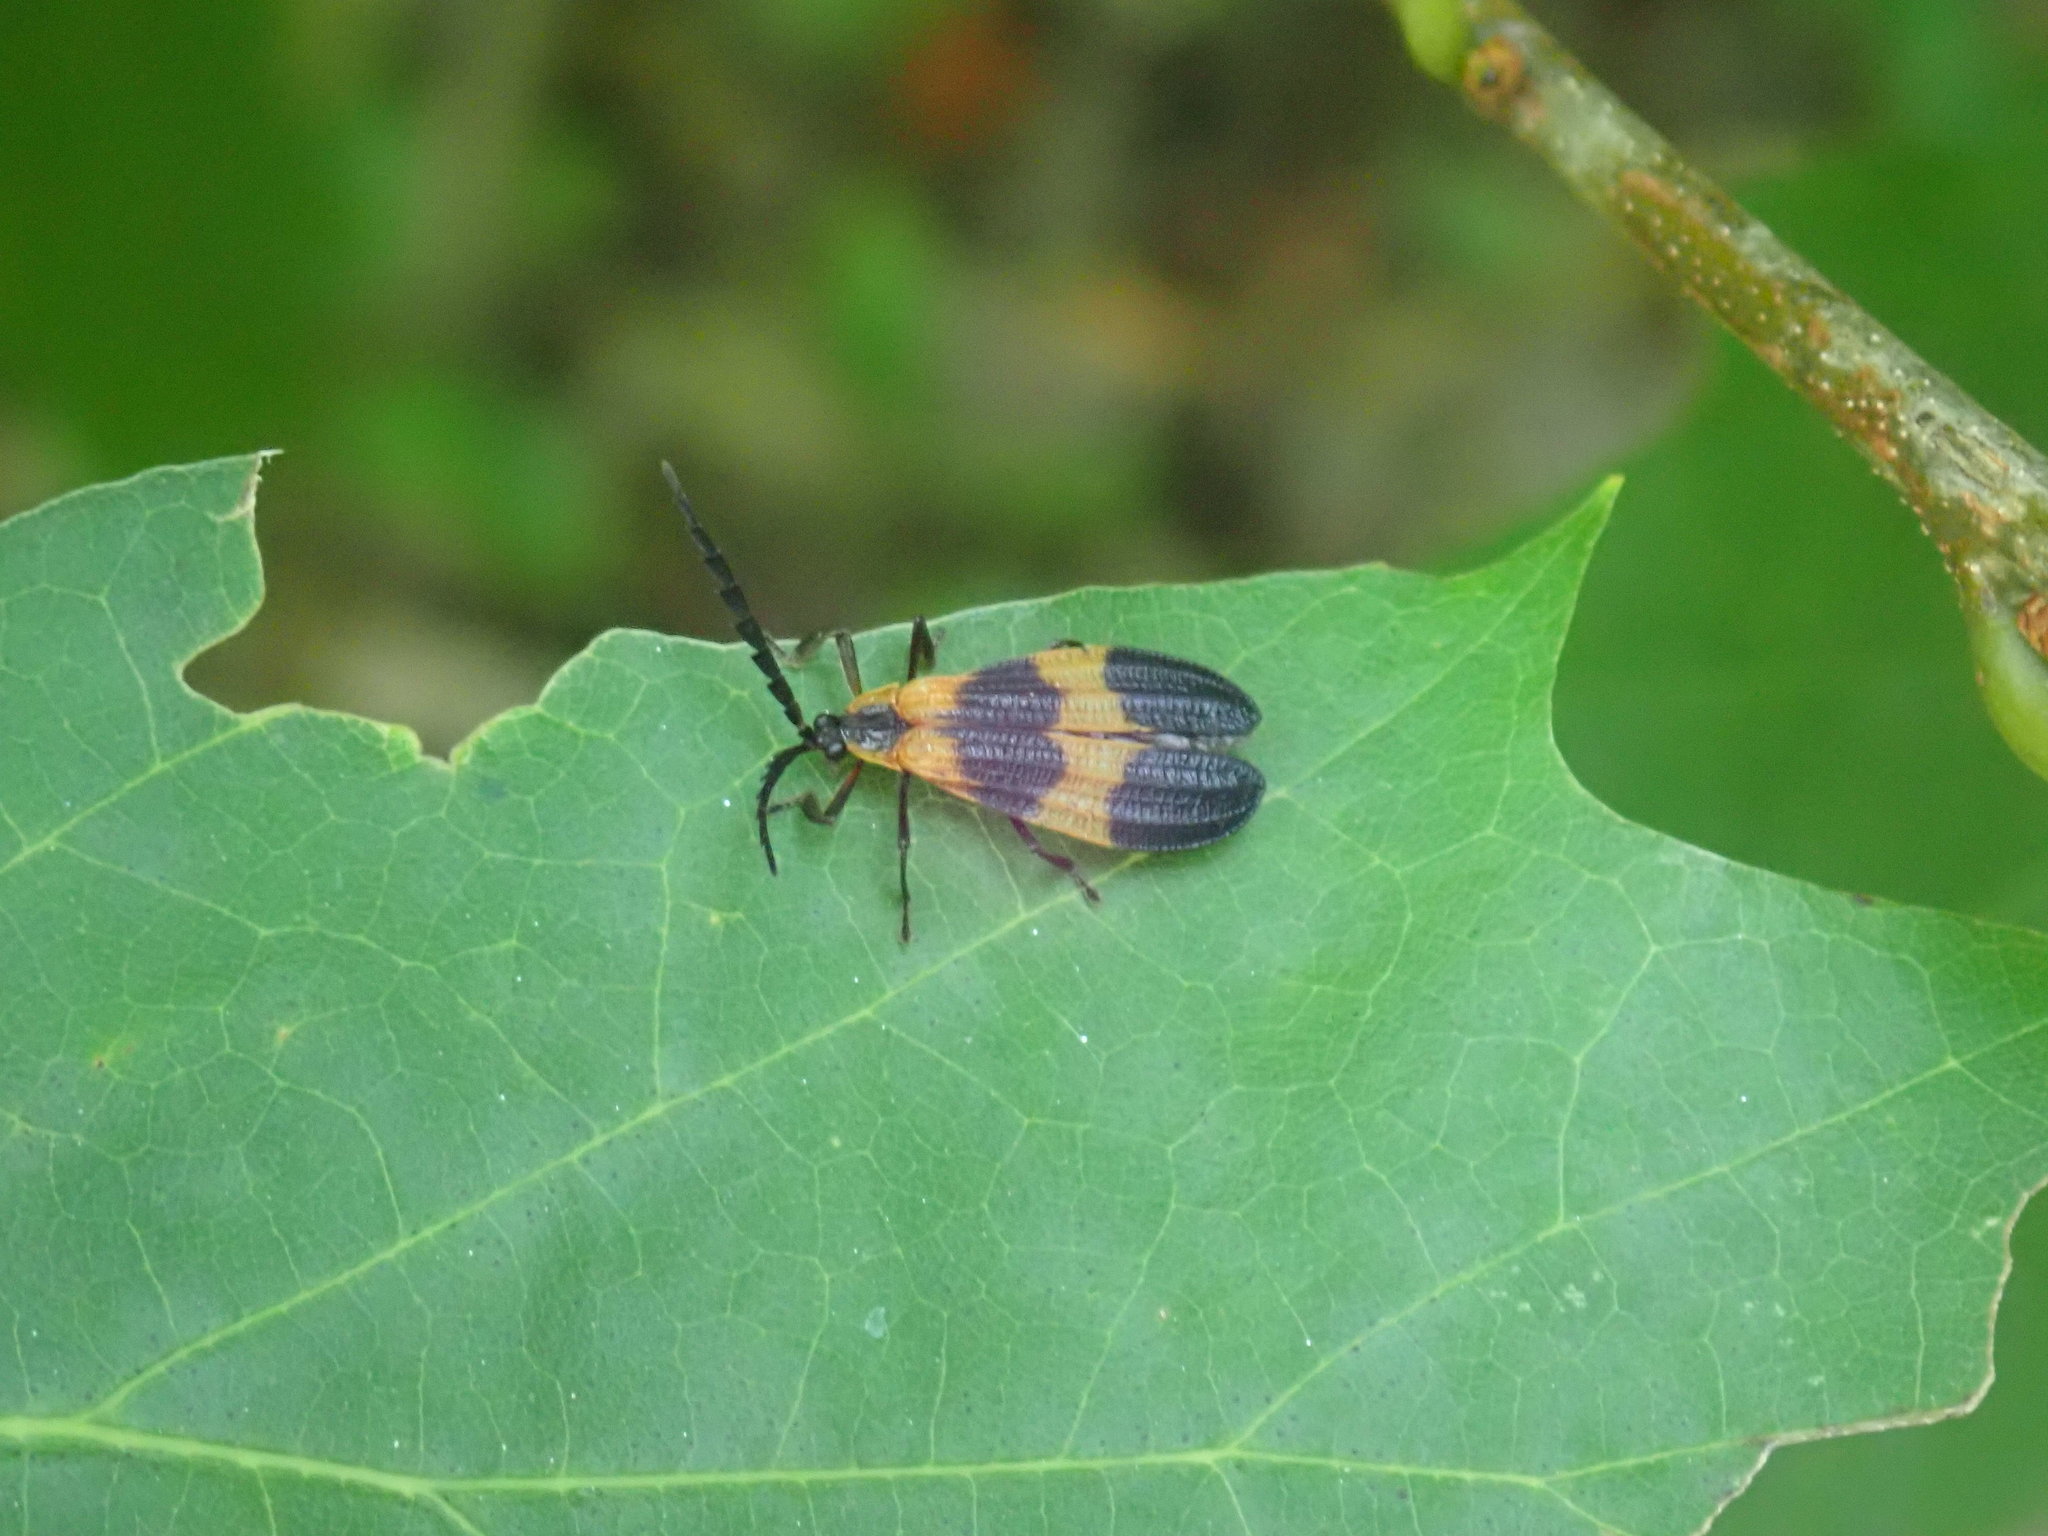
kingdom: Animalia
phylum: Arthropoda
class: Insecta
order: Coleoptera
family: Lycidae
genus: Calopteron
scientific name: Calopteron reticulatum
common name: Banded net-winged beetle
